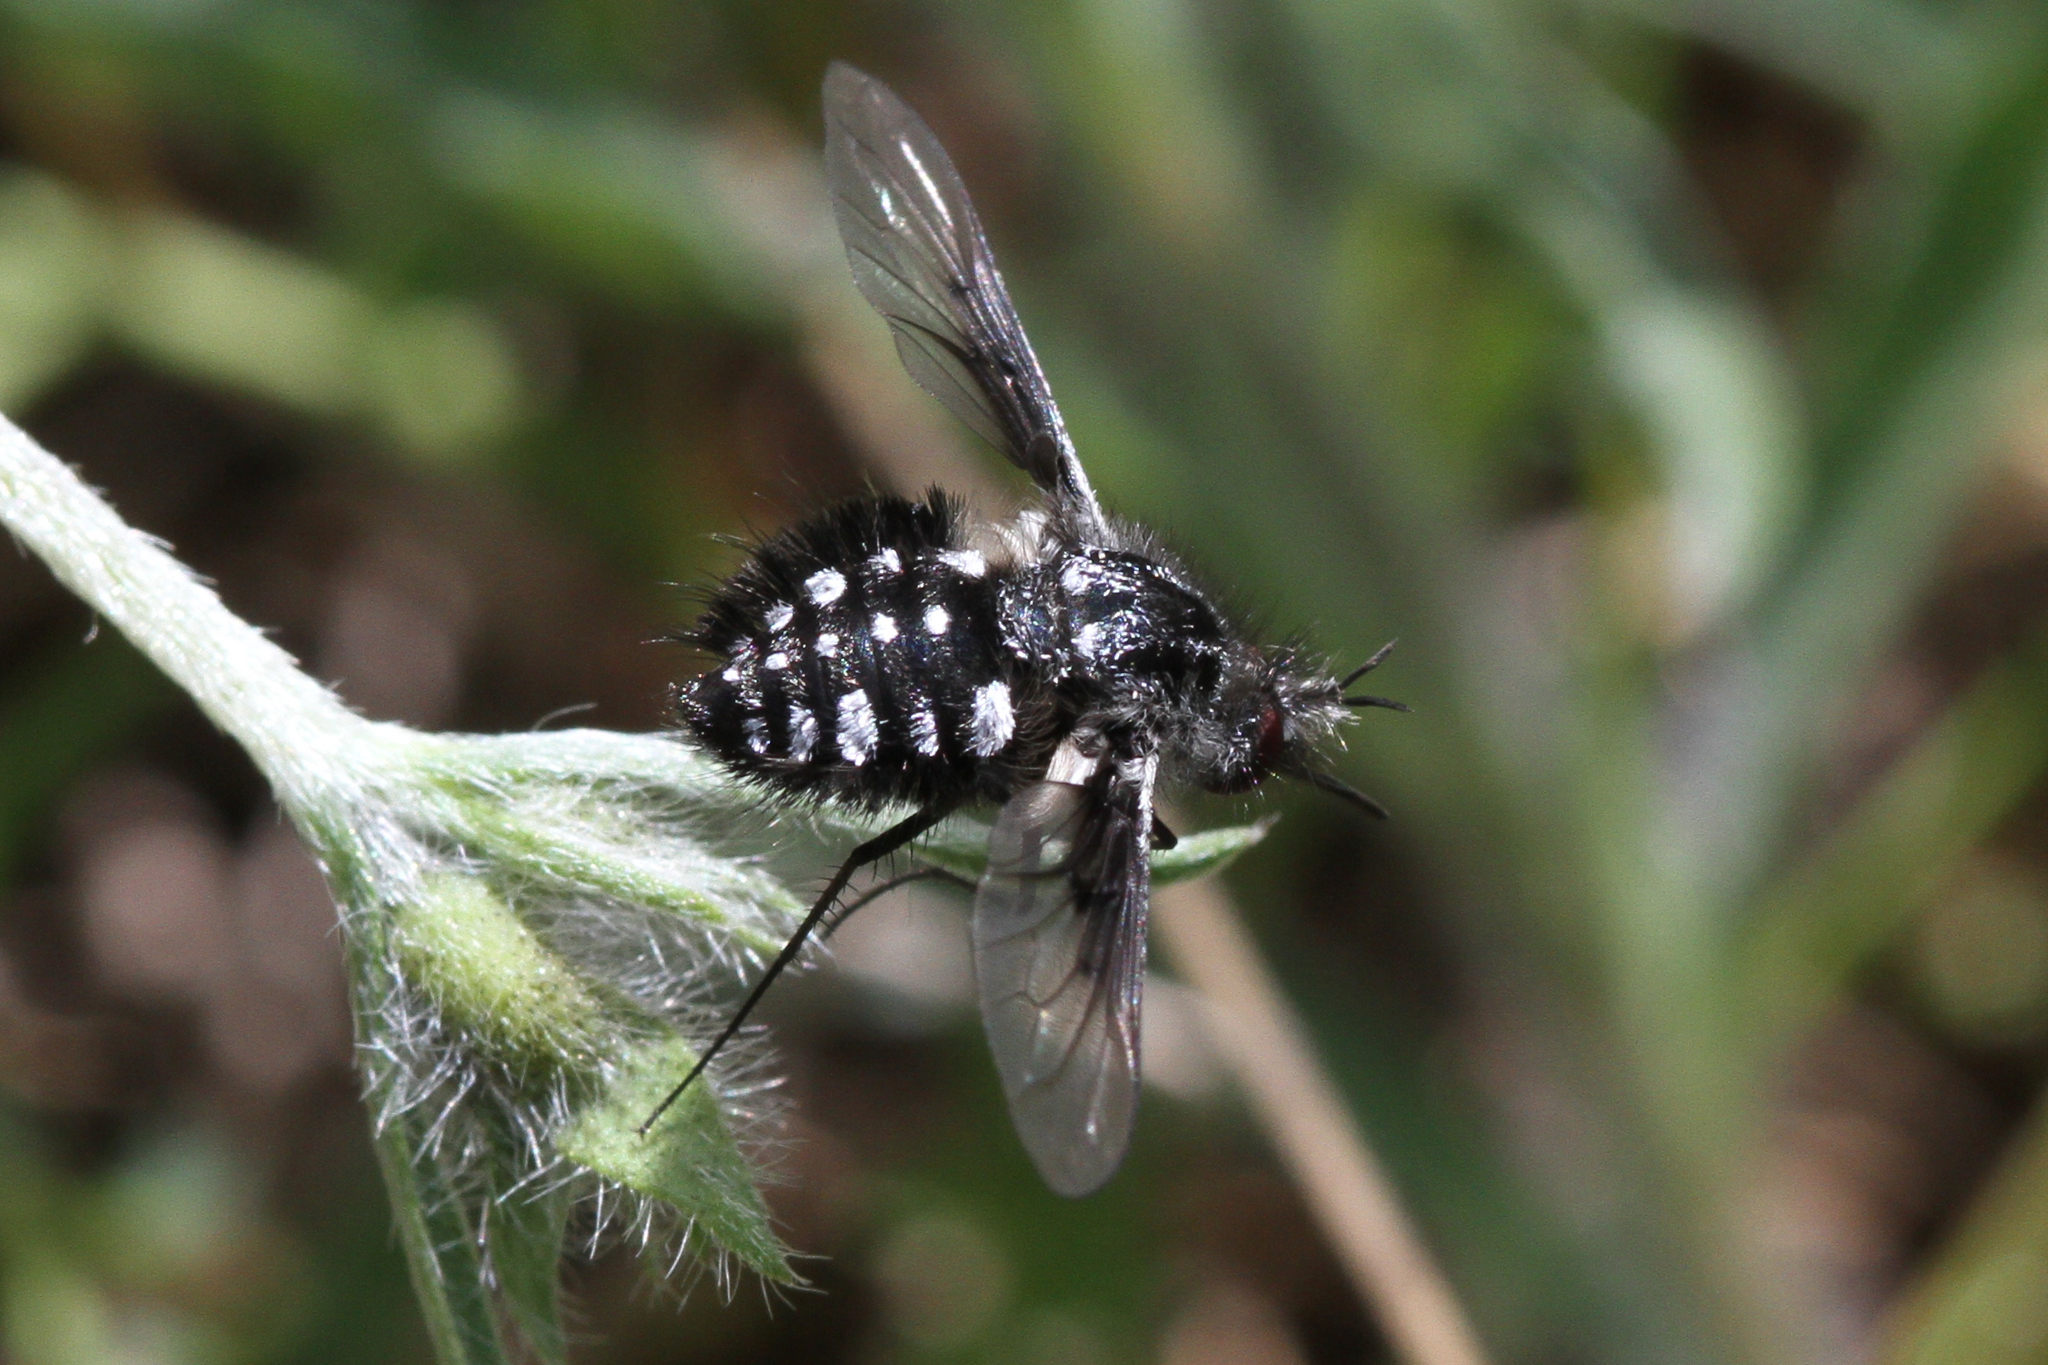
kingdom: Animalia
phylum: Arthropoda
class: Insecta
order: Diptera
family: Bombyliidae
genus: Bombylella
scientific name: Bombylella atra
